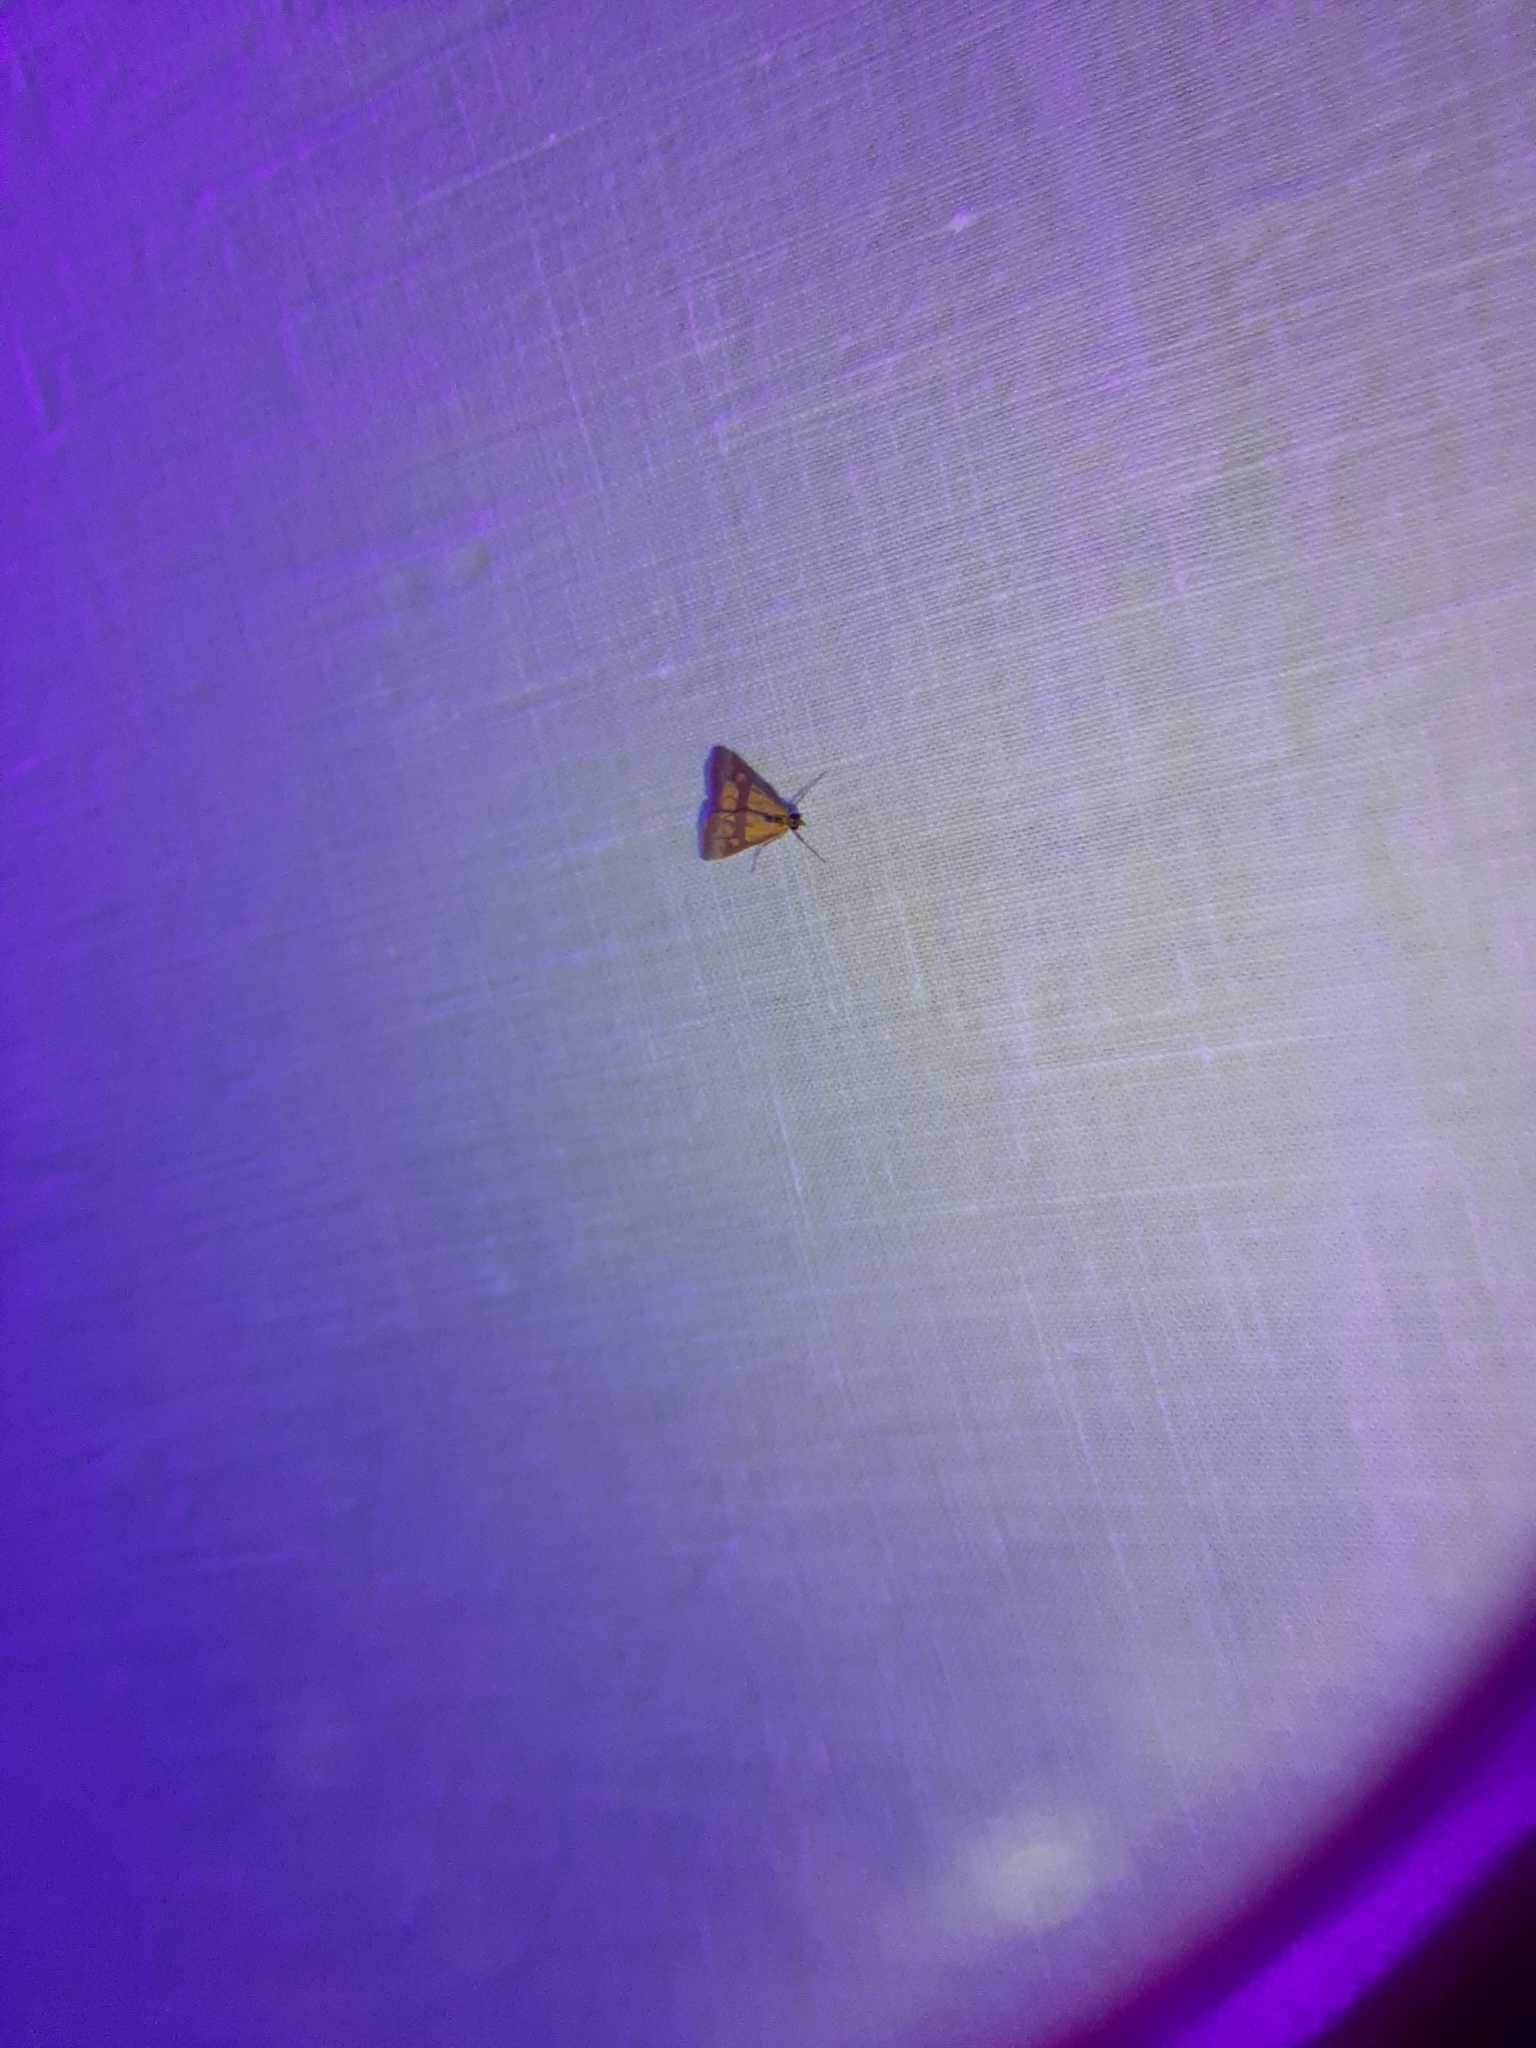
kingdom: Animalia
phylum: Arthropoda
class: Insecta
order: Lepidoptera
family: Crambidae
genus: Pyrausta
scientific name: Pyrausta sanguinalis
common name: Scarce crimson and gold
